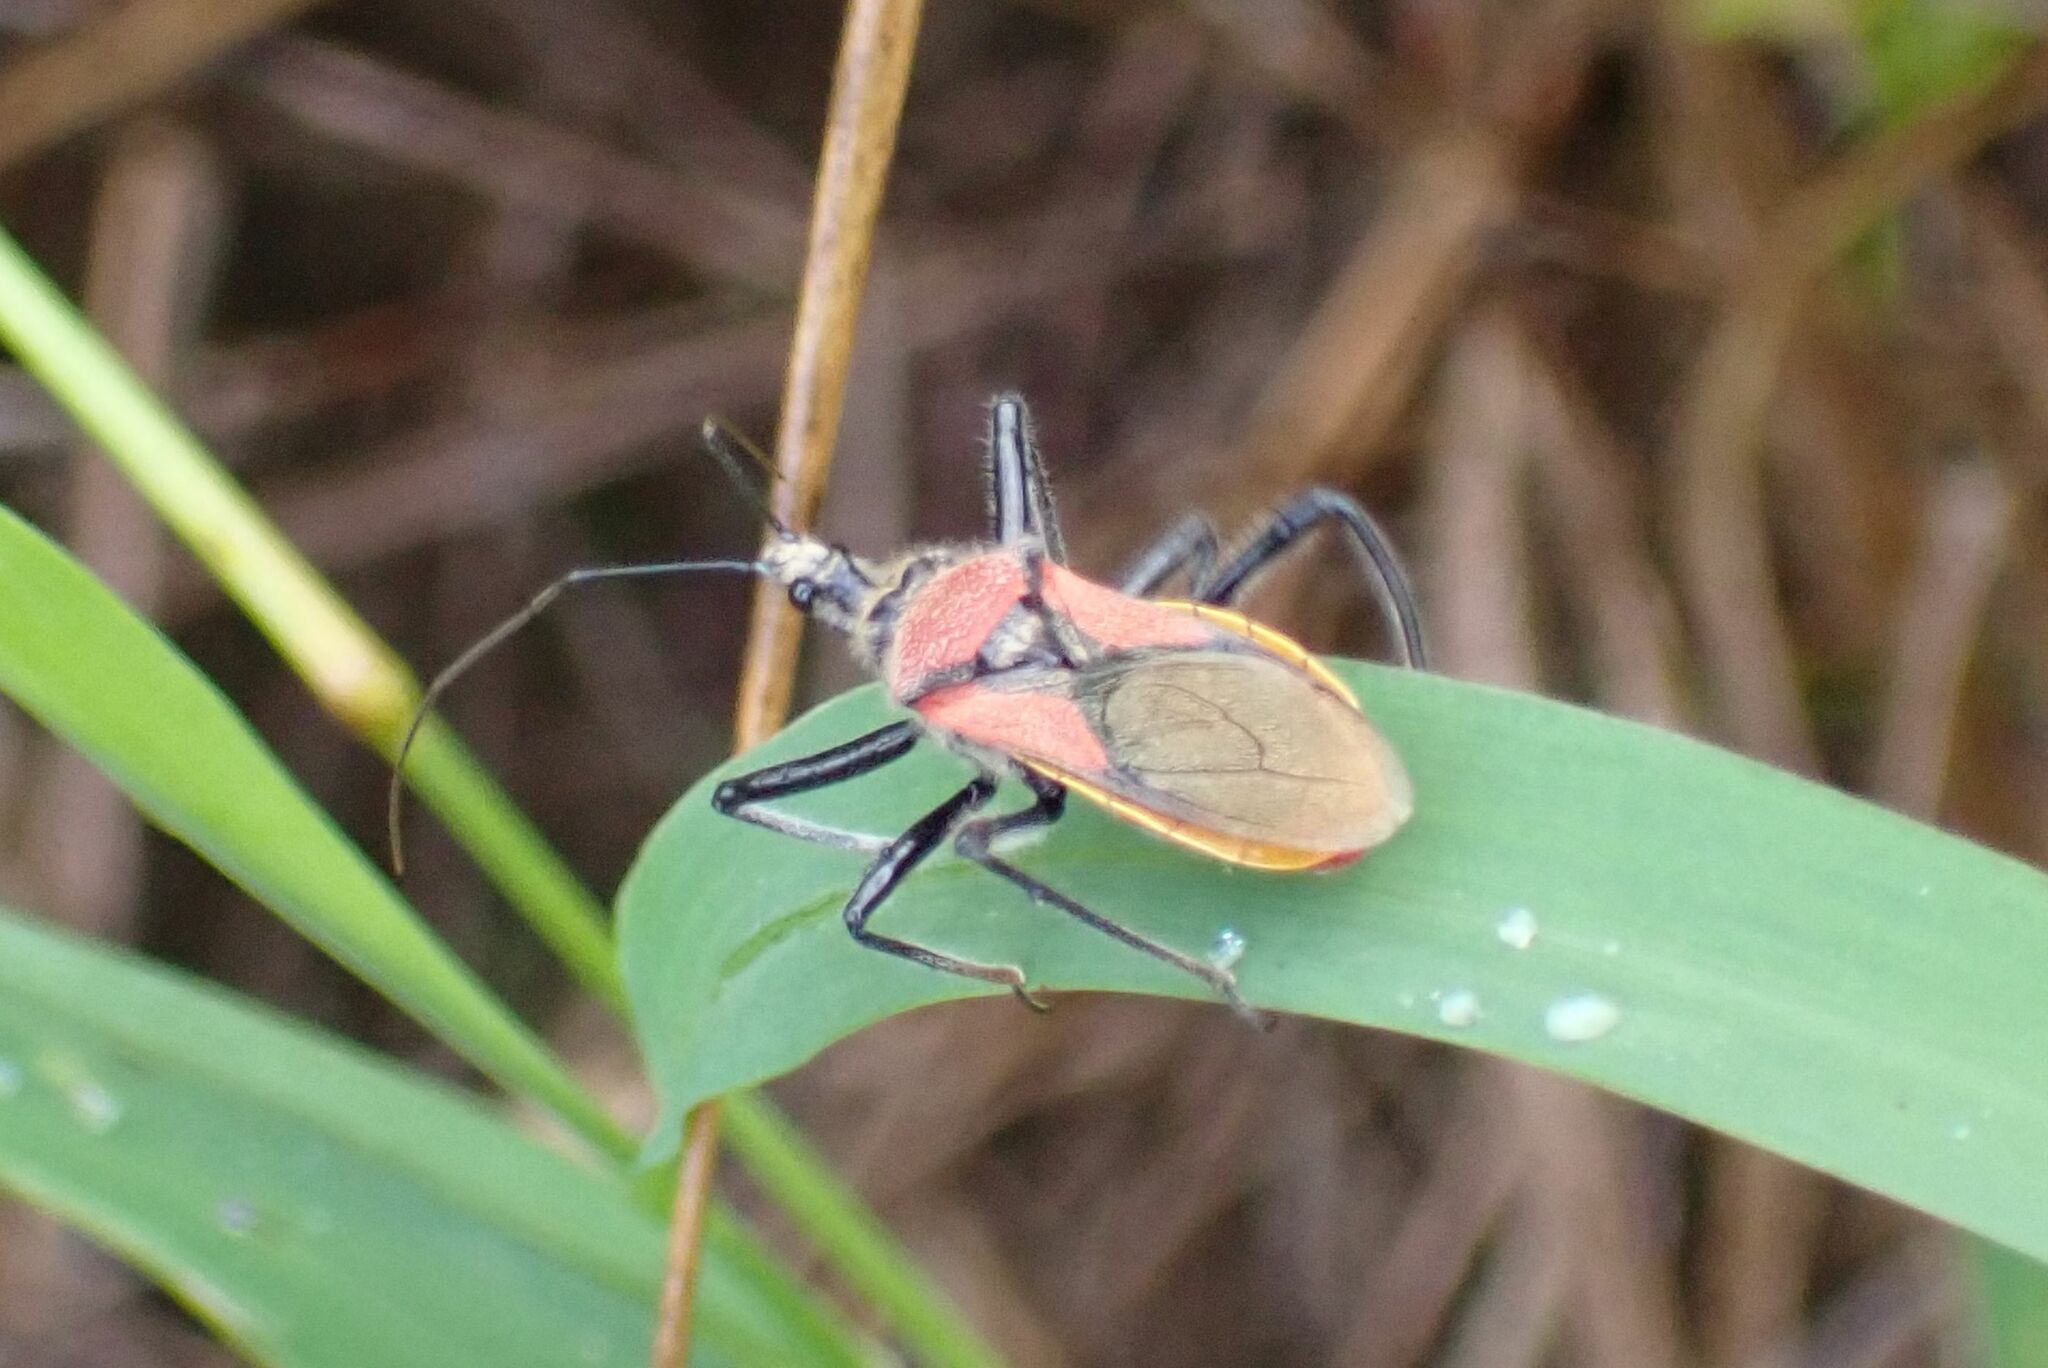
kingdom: Animalia
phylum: Arthropoda
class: Insecta
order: Hemiptera
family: Reduviidae
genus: Rhynocoris
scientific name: Rhynocoris segmentarius
